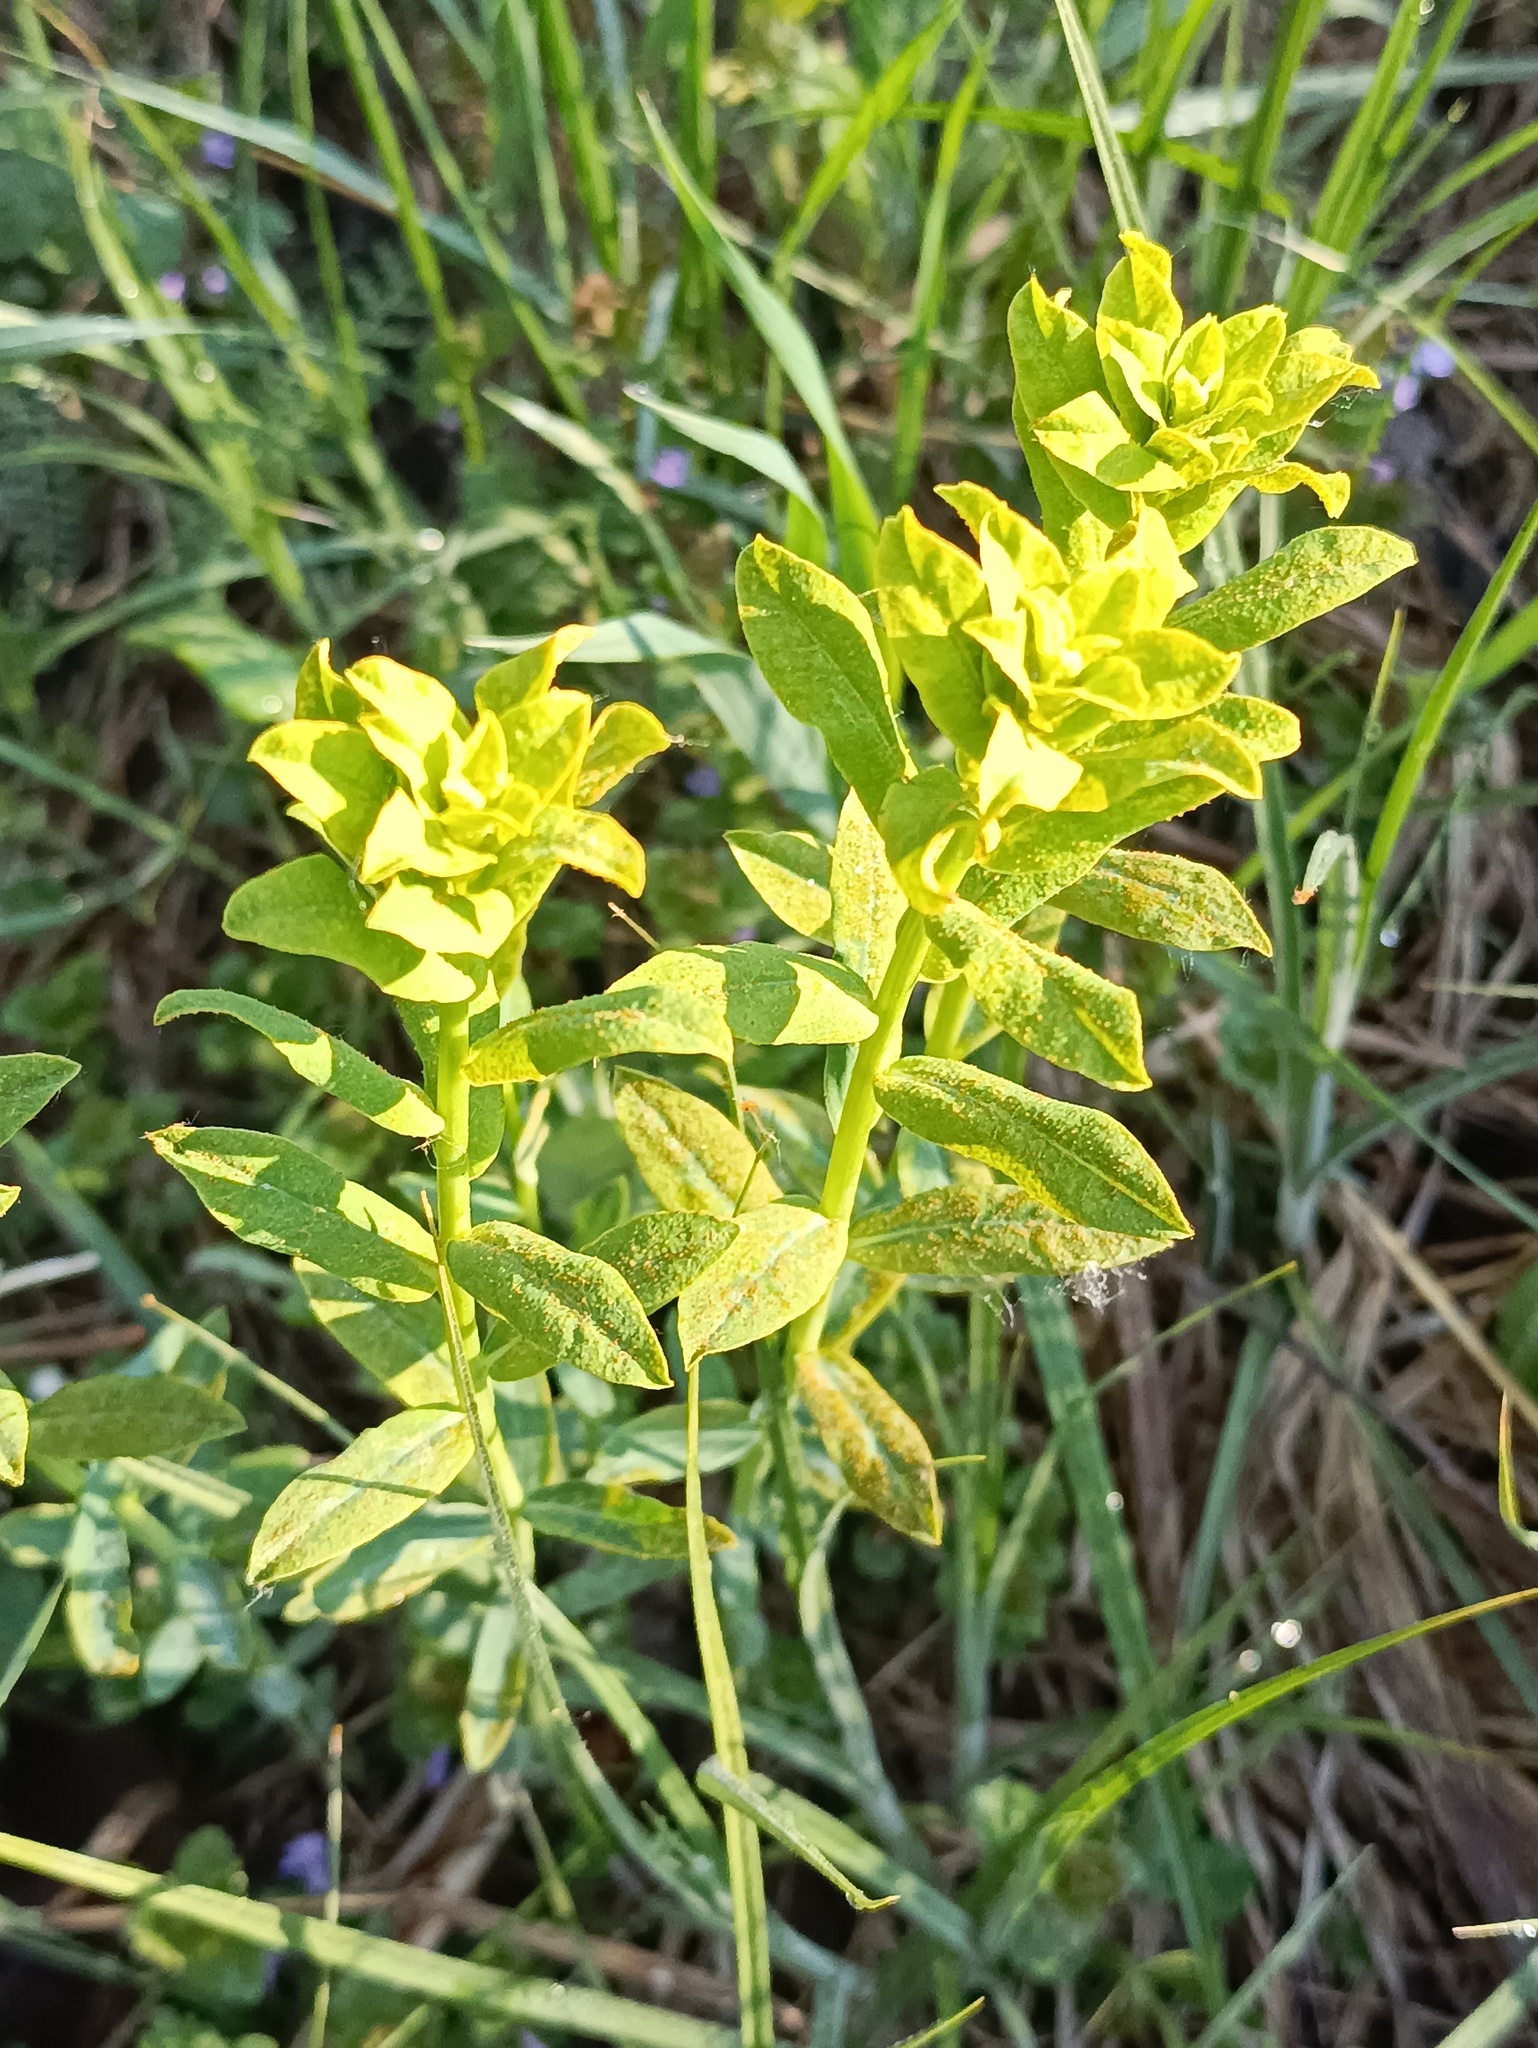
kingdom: Plantae
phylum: Tracheophyta
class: Magnoliopsida
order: Malpighiales
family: Euphorbiaceae
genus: Euphorbia
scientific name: Euphorbia virgata
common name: Leafy spurge
